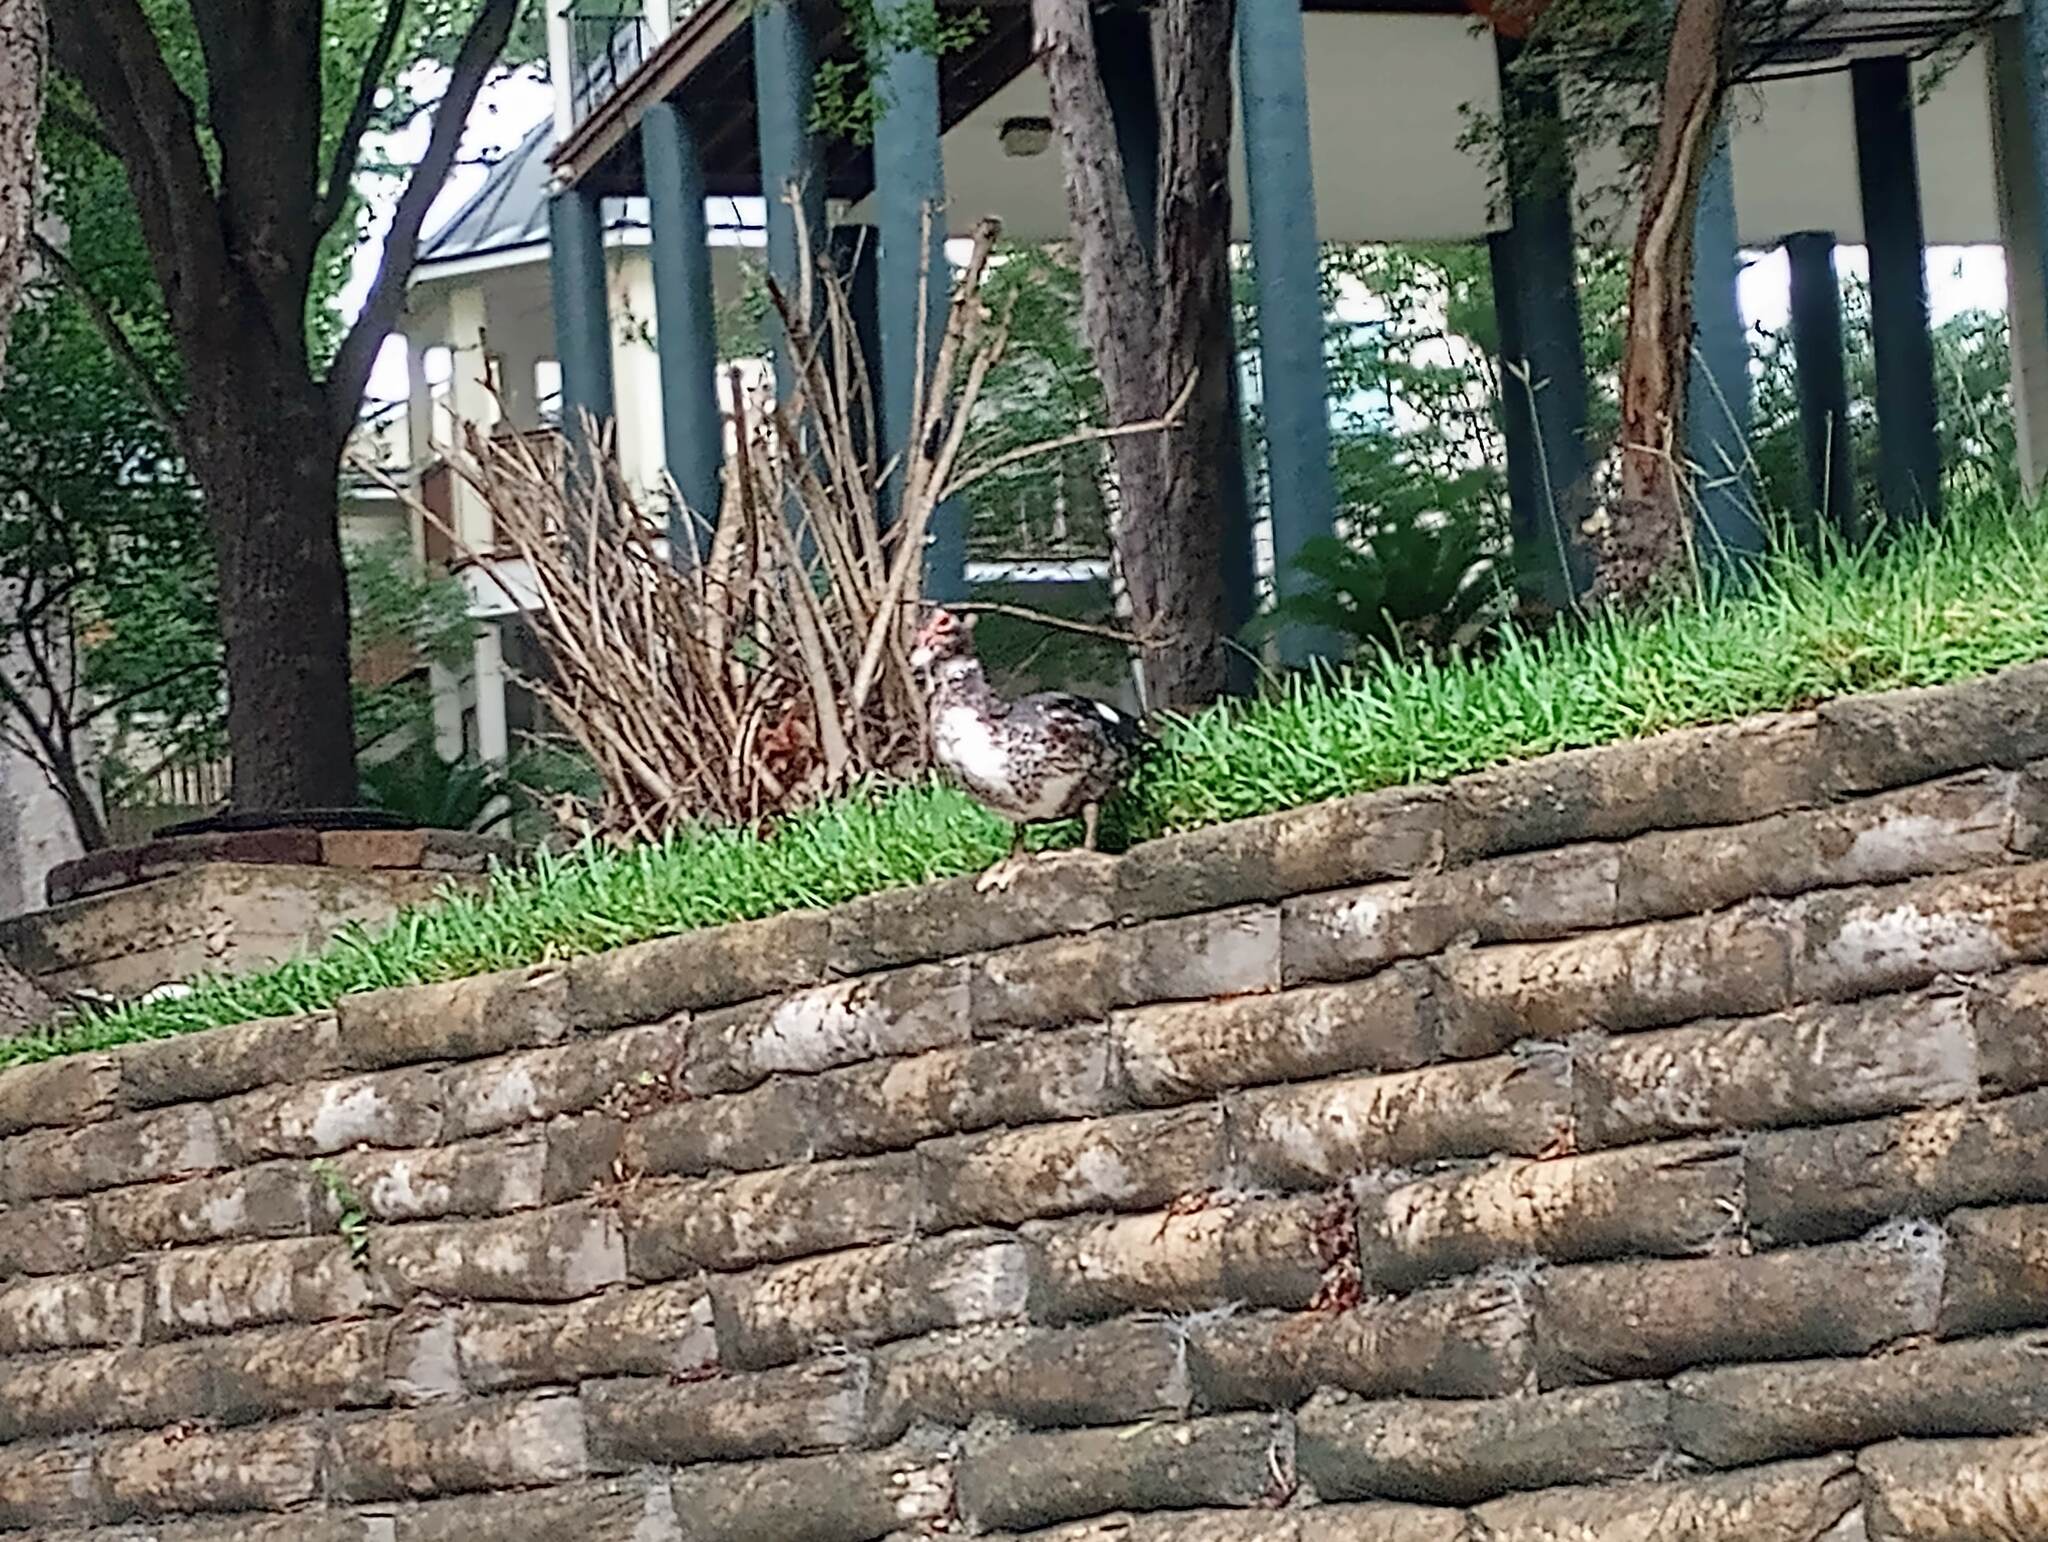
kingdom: Animalia
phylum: Chordata
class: Aves
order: Anseriformes
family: Anatidae
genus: Cairina
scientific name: Cairina moschata
